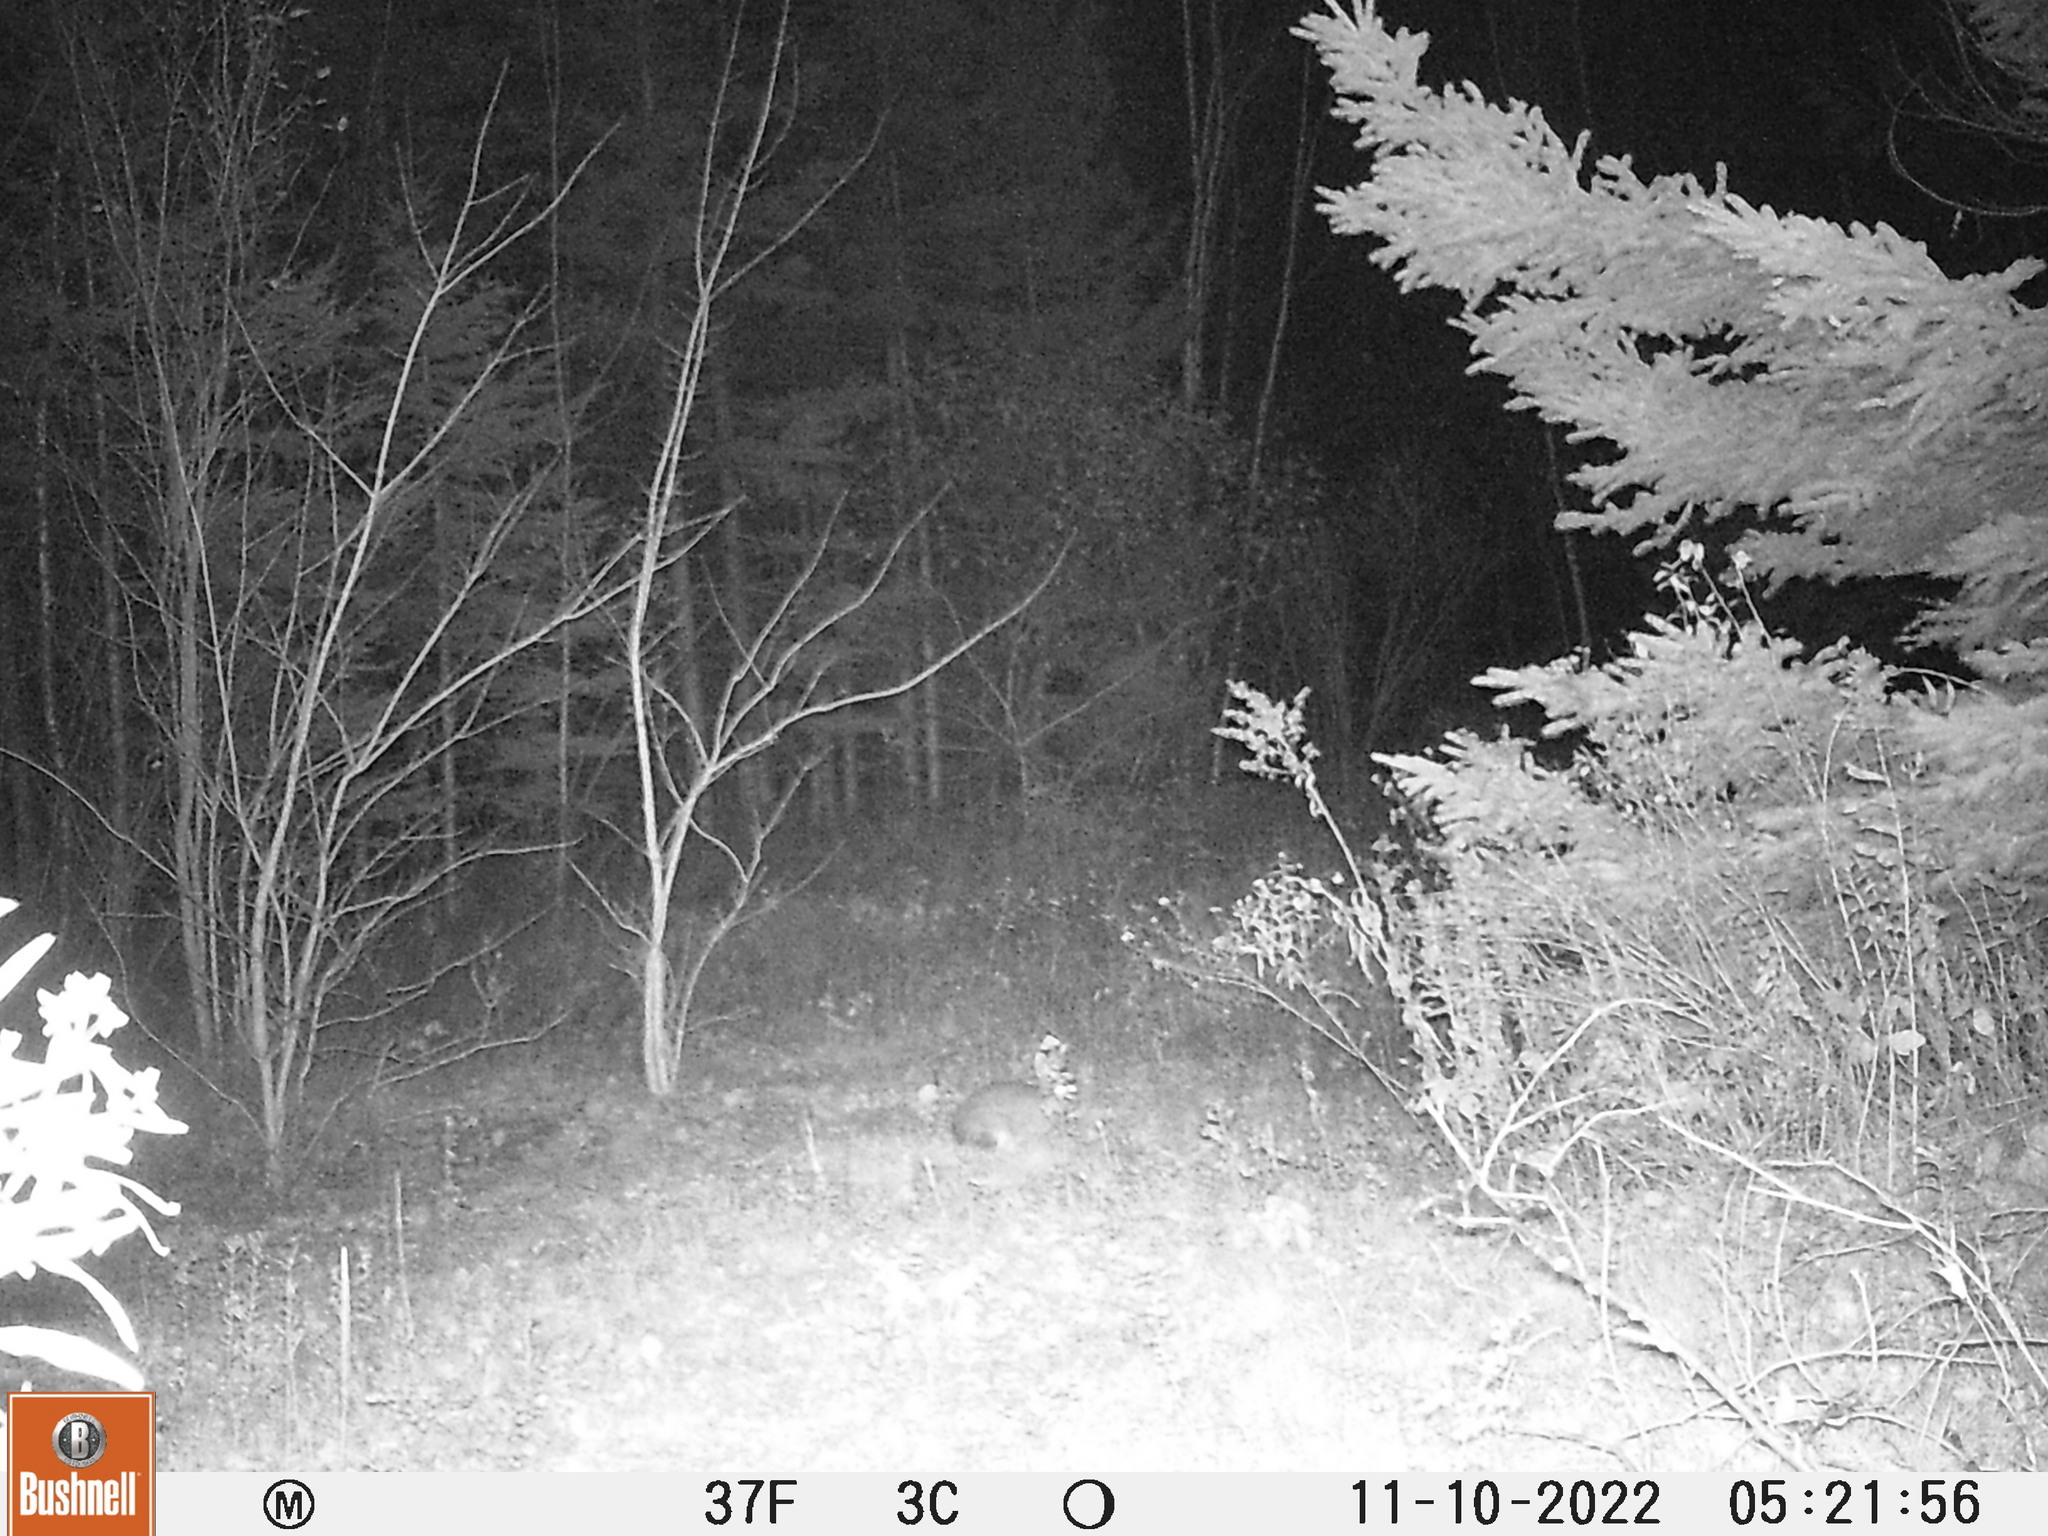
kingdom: Animalia
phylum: Chordata
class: Mammalia
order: Lagomorpha
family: Leporidae
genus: Lepus
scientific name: Lepus americanus
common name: Snowshoe hare
